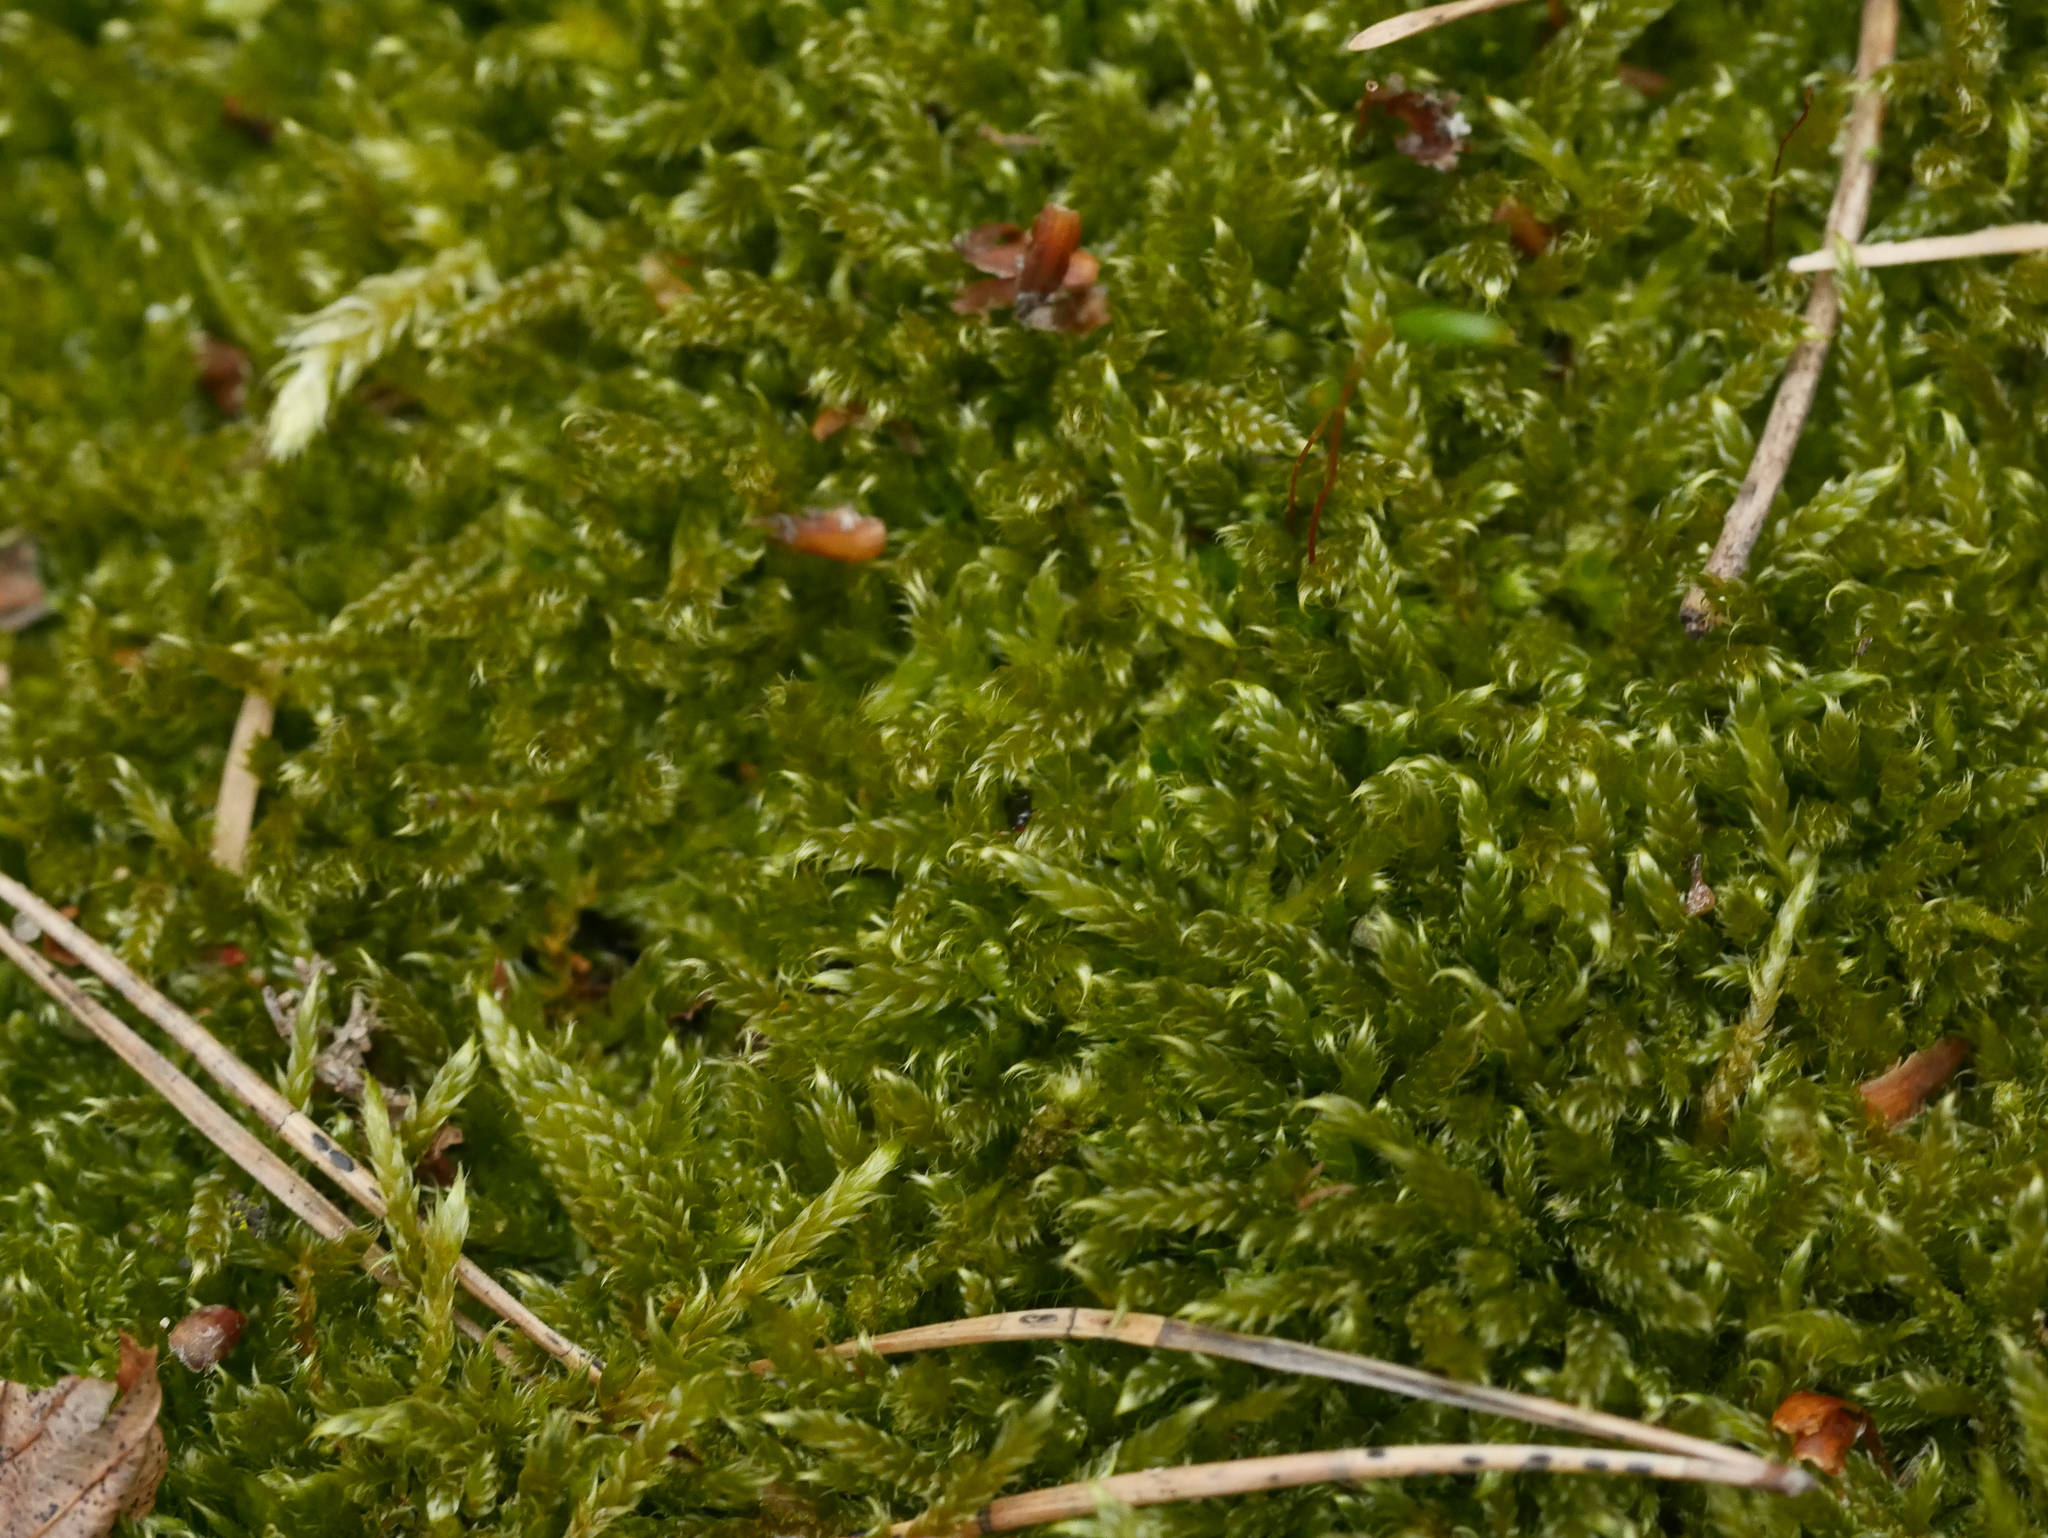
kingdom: Plantae
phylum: Bryophyta
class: Bryopsida
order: Hypnales
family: Hypnaceae
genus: Hypnum
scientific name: Hypnum cupressiforme
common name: Cypress-leaved plait-moss
